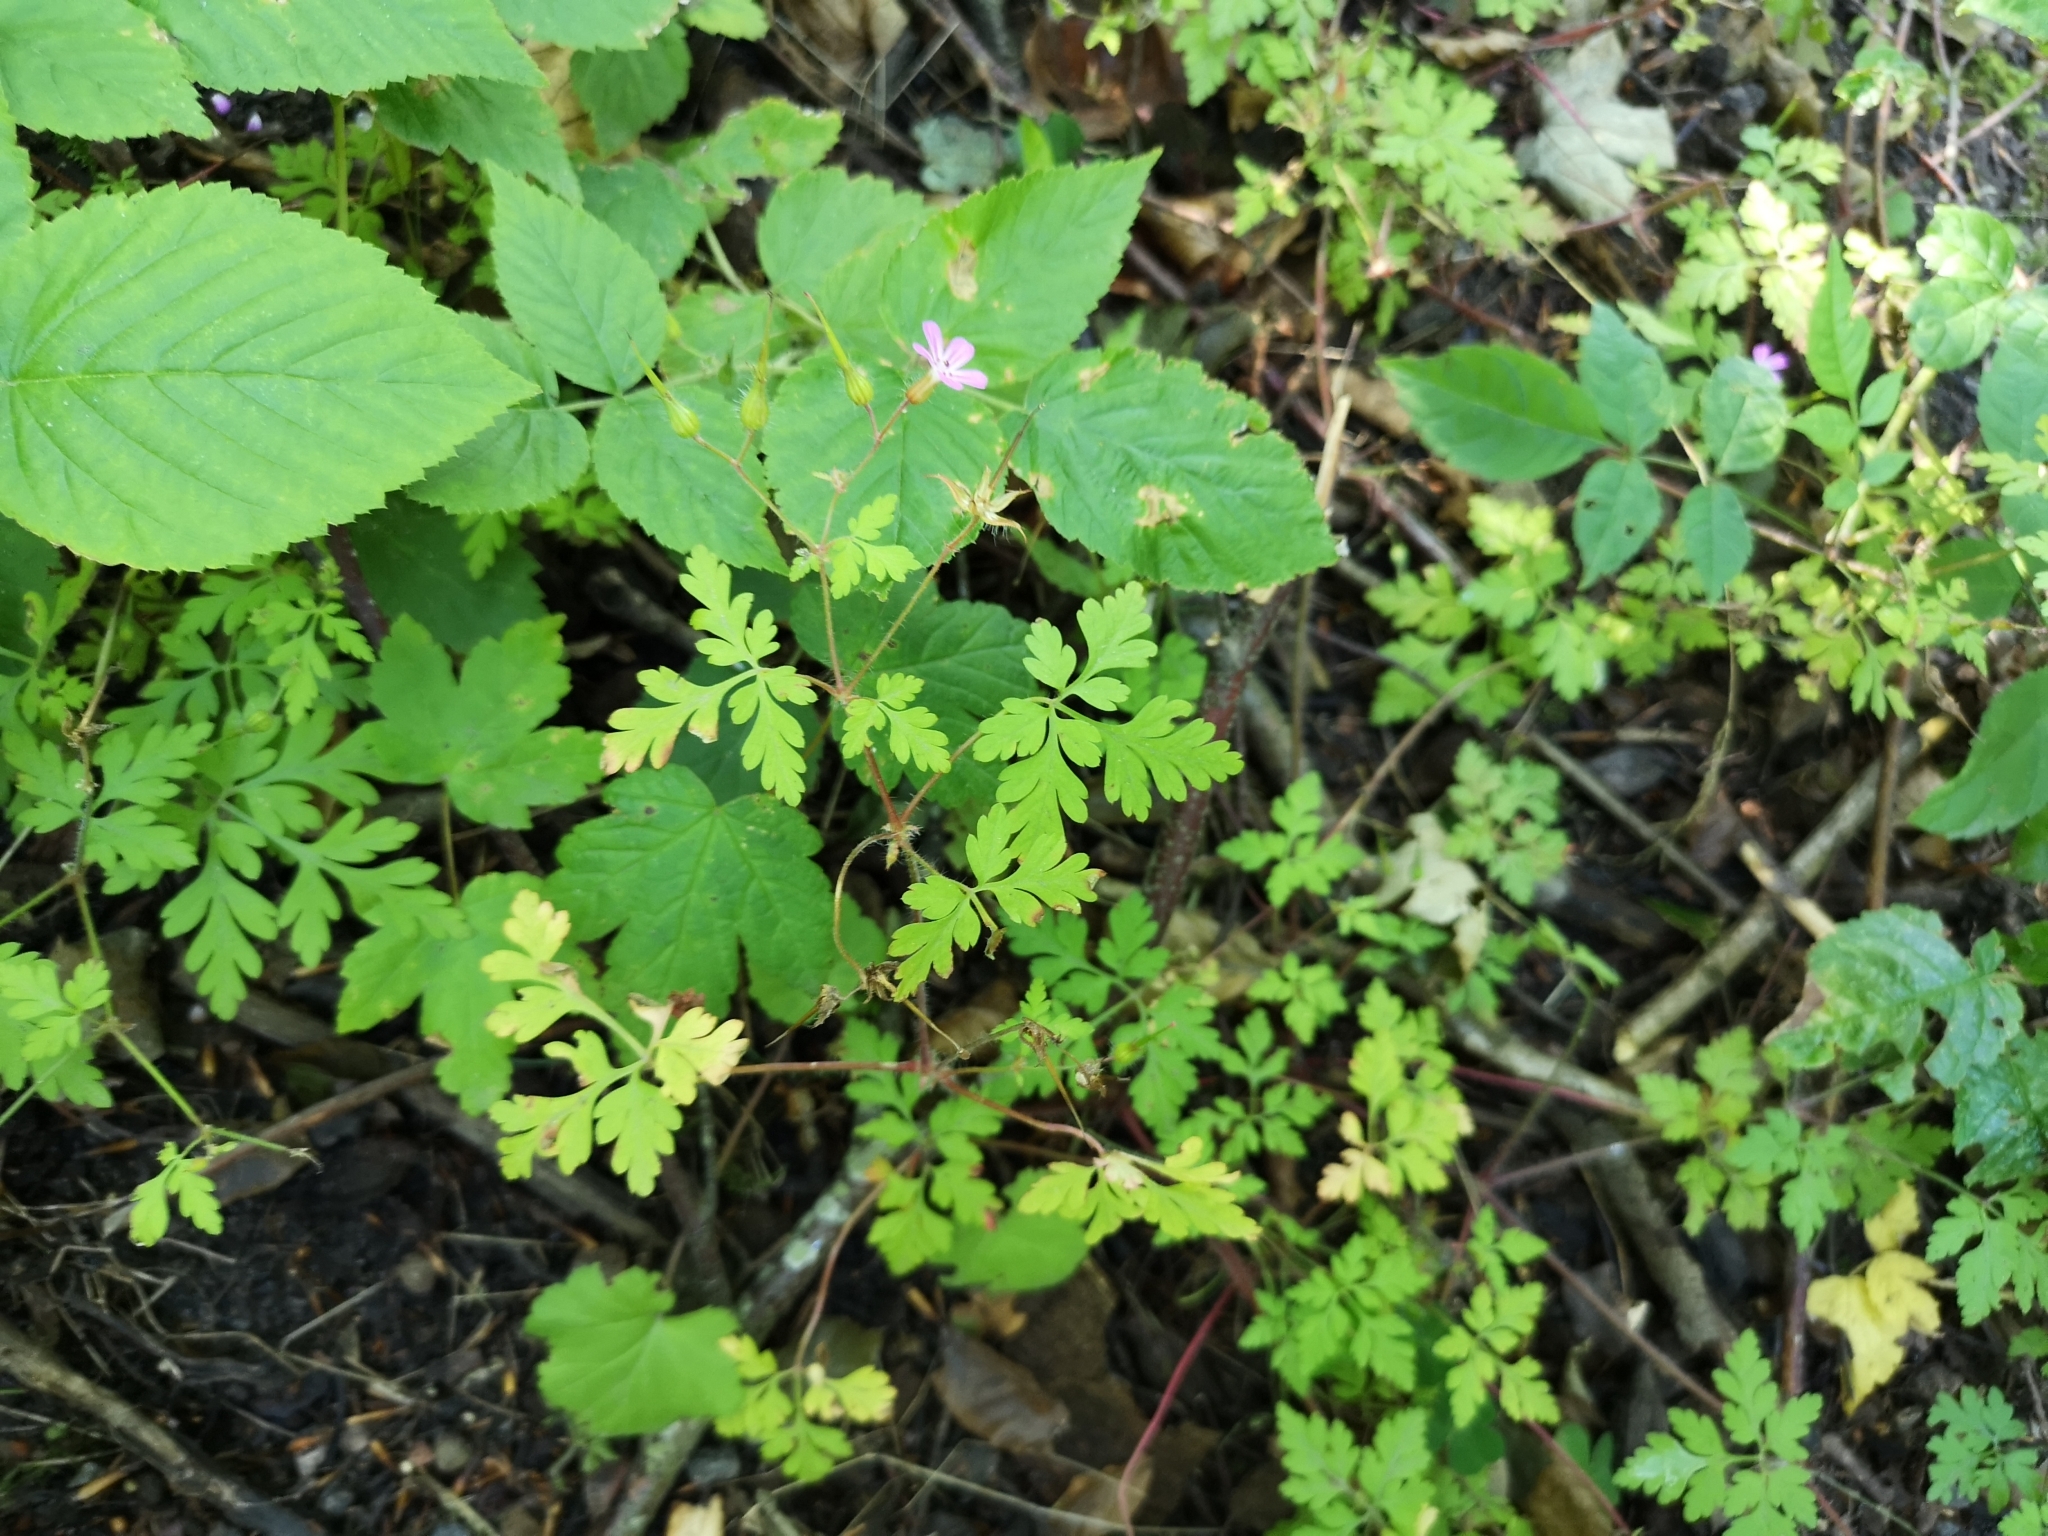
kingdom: Plantae
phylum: Tracheophyta
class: Magnoliopsida
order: Geraniales
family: Geraniaceae
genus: Geranium
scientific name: Geranium robertianum
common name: Herb-robert
